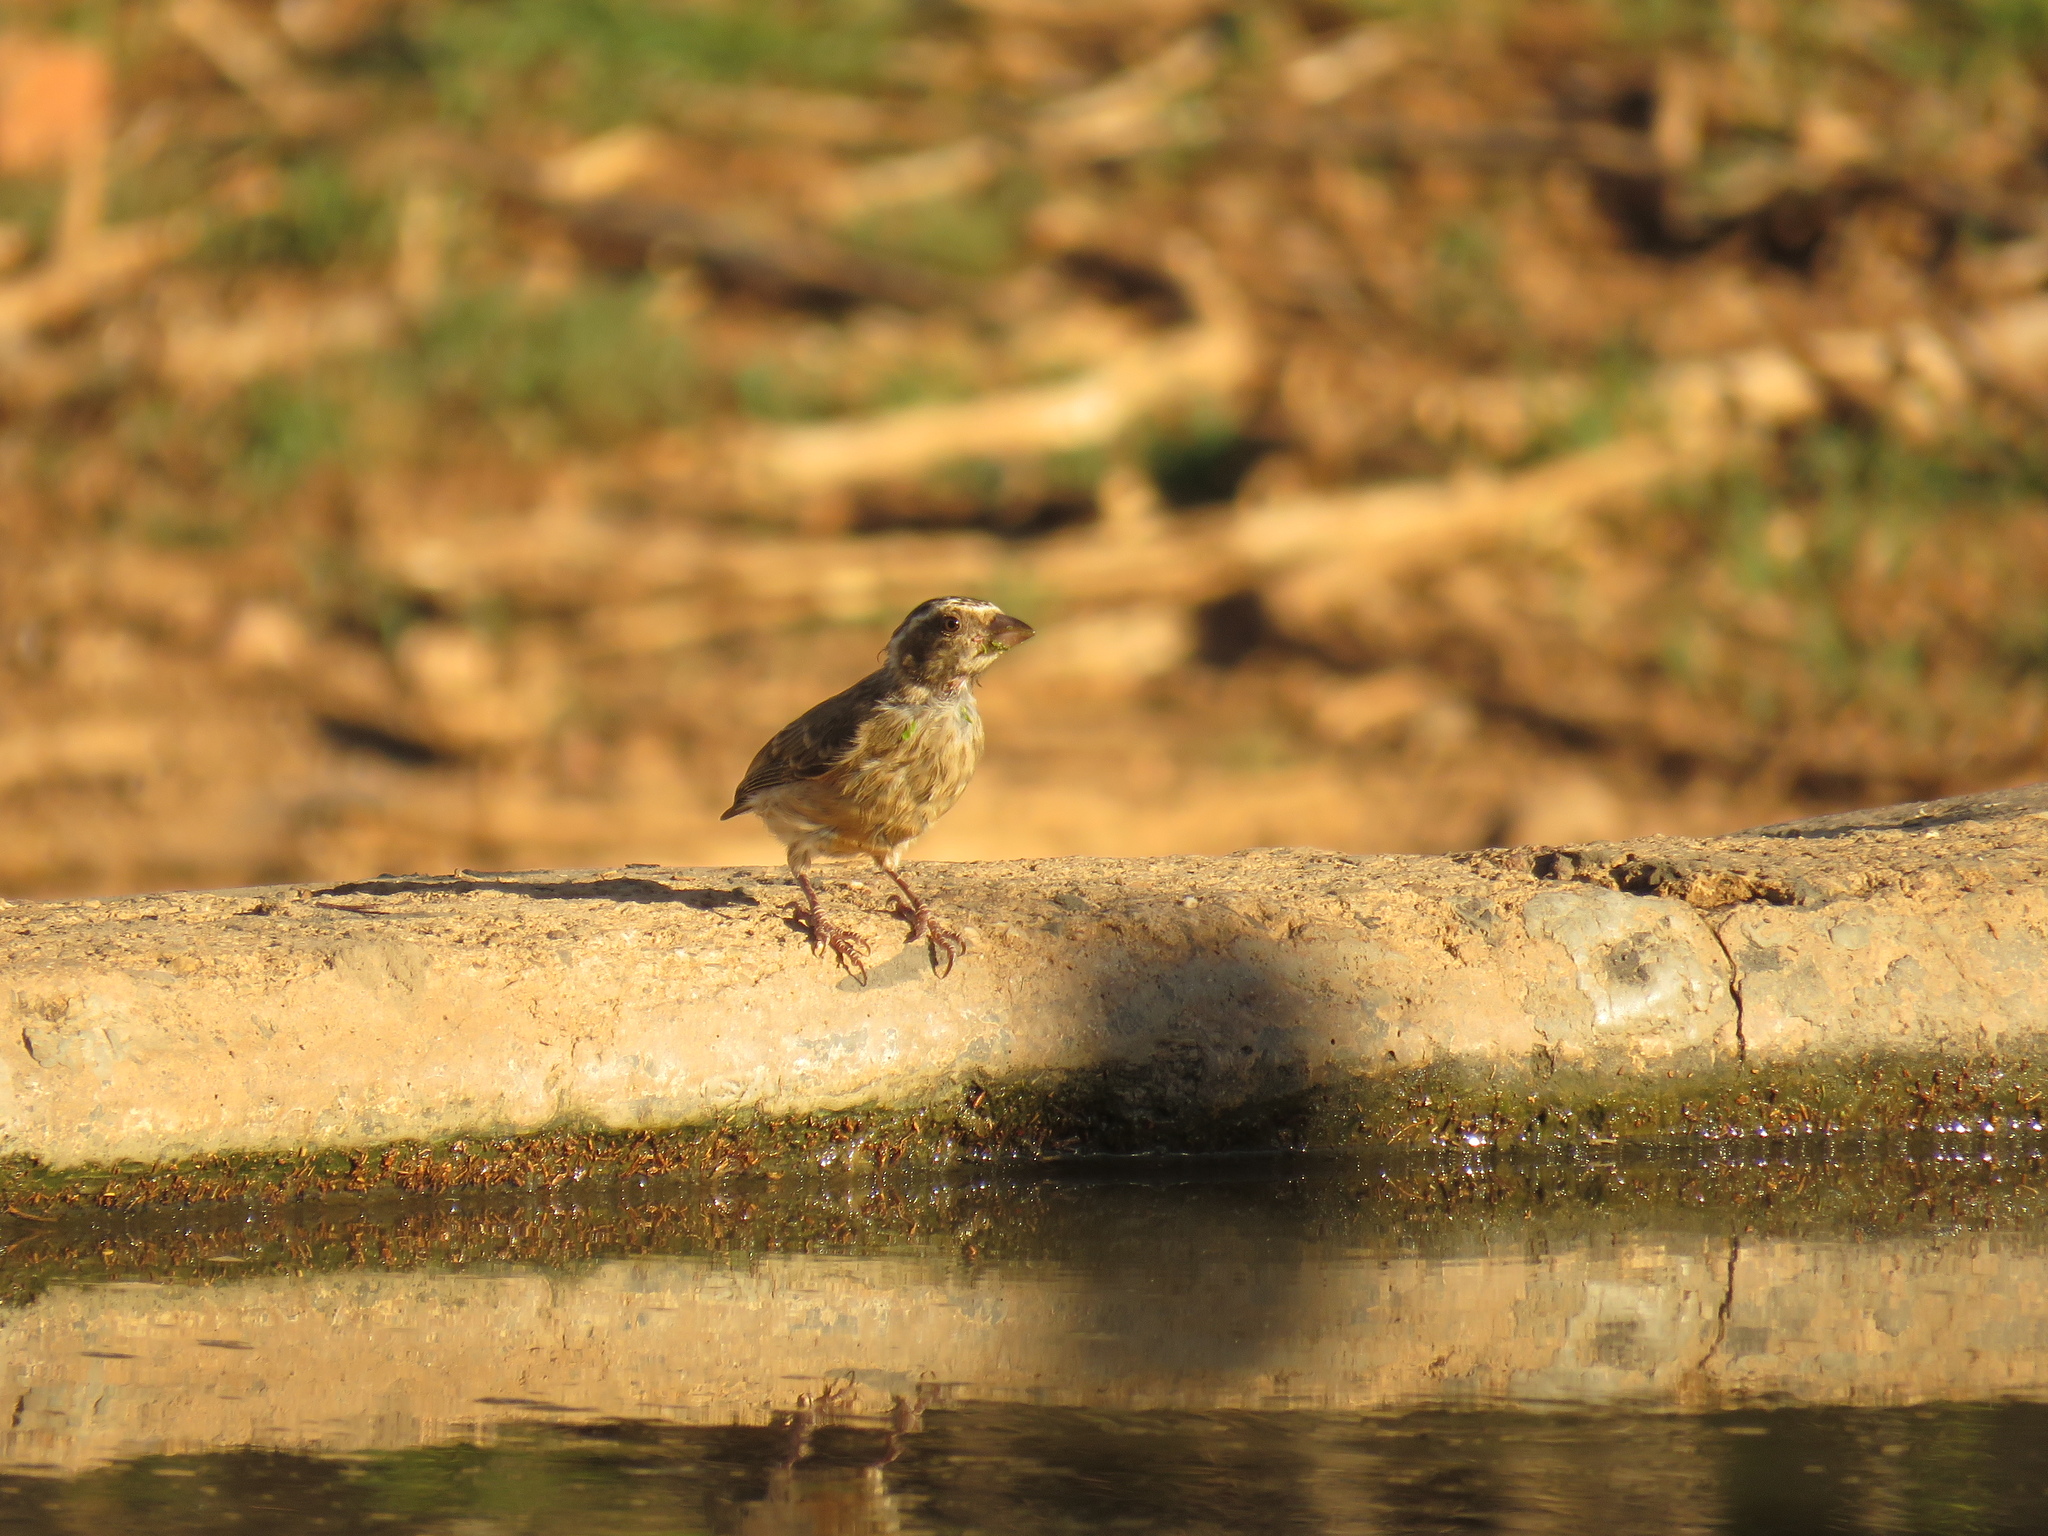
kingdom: Animalia
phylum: Chordata
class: Aves
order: Passeriformes
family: Fringillidae
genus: Crithagra
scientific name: Crithagra gularis
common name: Streaky-headed seedeater
